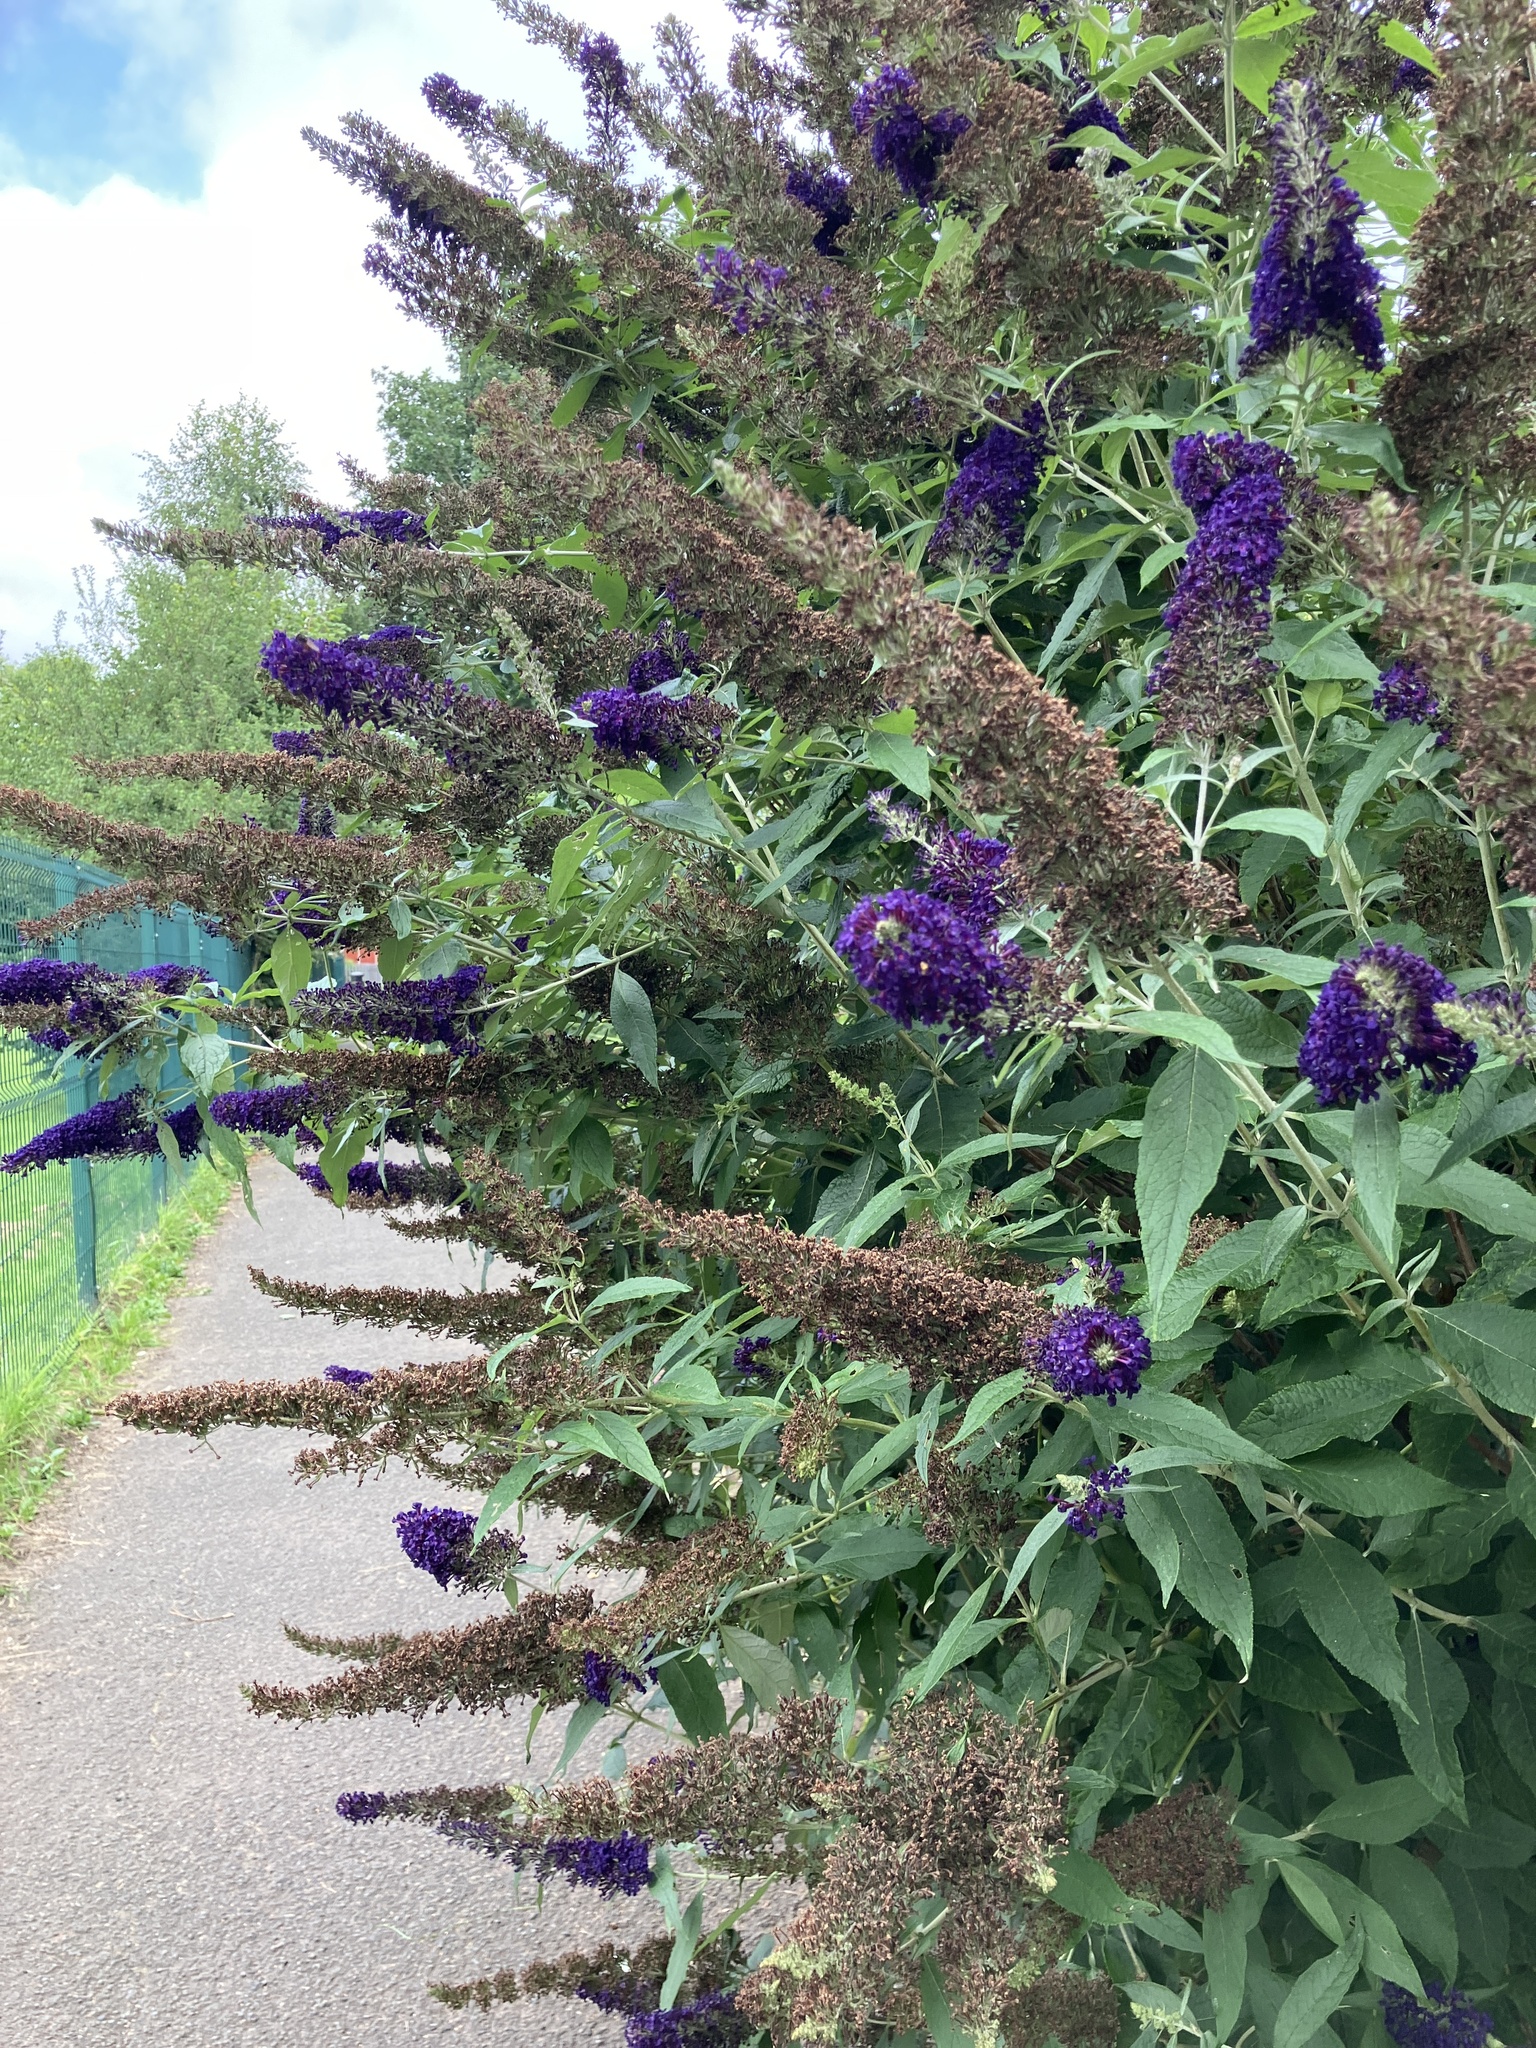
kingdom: Plantae
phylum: Tracheophyta
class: Magnoliopsida
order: Lamiales
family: Scrophulariaceae
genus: Buddleja
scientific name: Buddleja davidii
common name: Butterfly-bush
